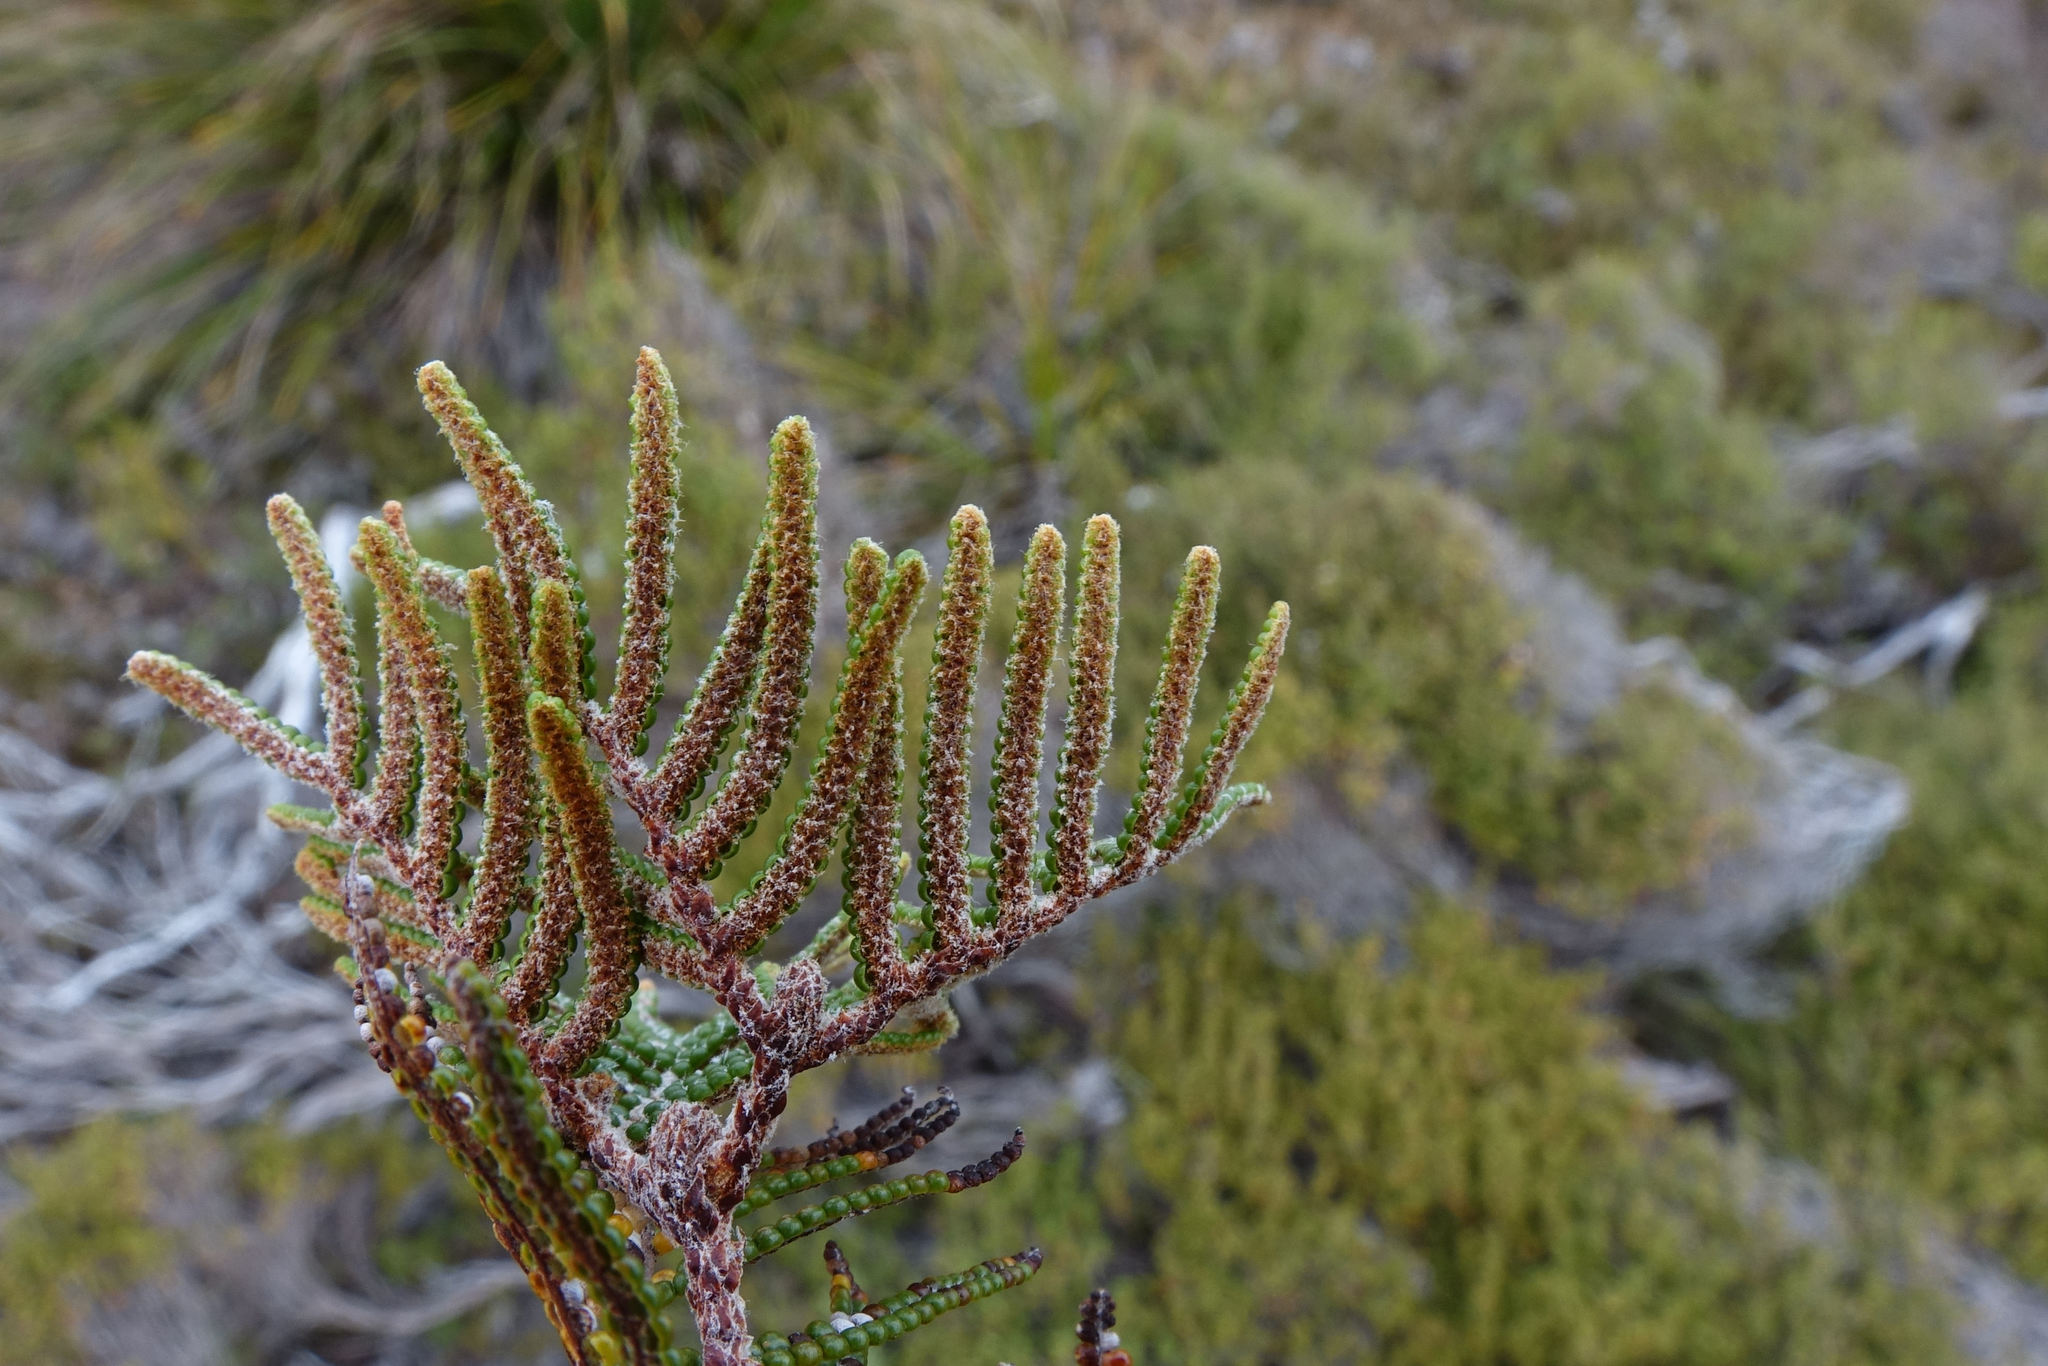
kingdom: Plantae
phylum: Tracheophyta
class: Polypodiopsida
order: Gleicheniales
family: Gleicheniaceae
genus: Gleichenia
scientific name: Gleichenia alpina
